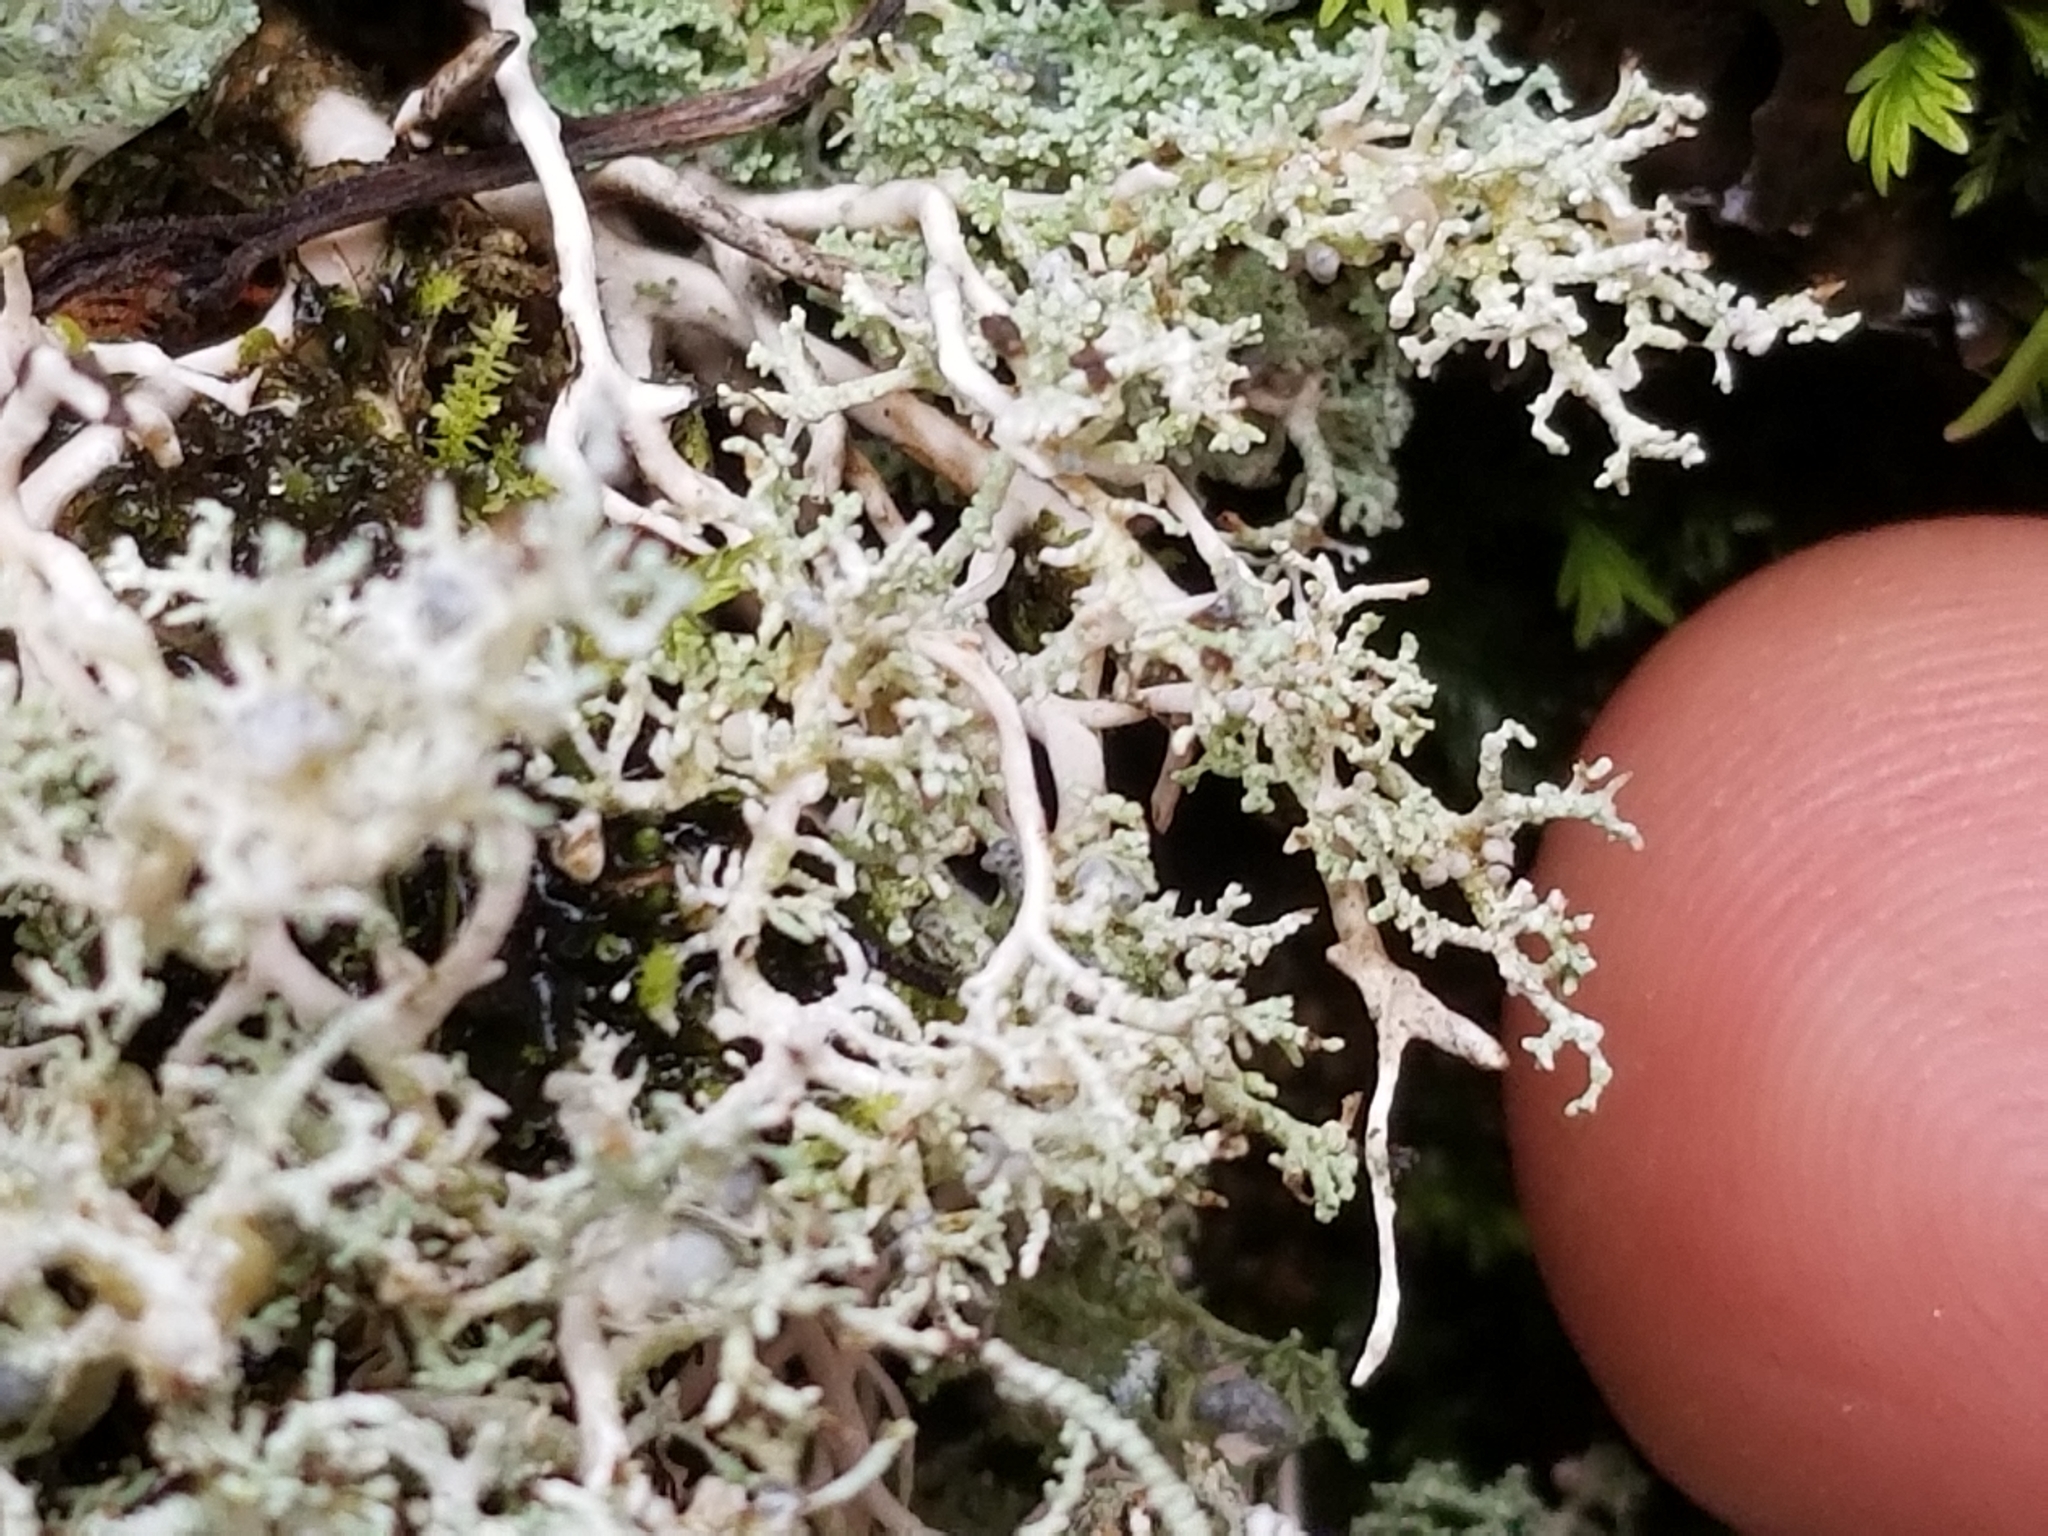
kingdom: Fungi
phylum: Ascomycota
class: Lecanoromycetes
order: Lecanorales
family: Stereocaulaceae
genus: Stereocaulon
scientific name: Stereocaulon
